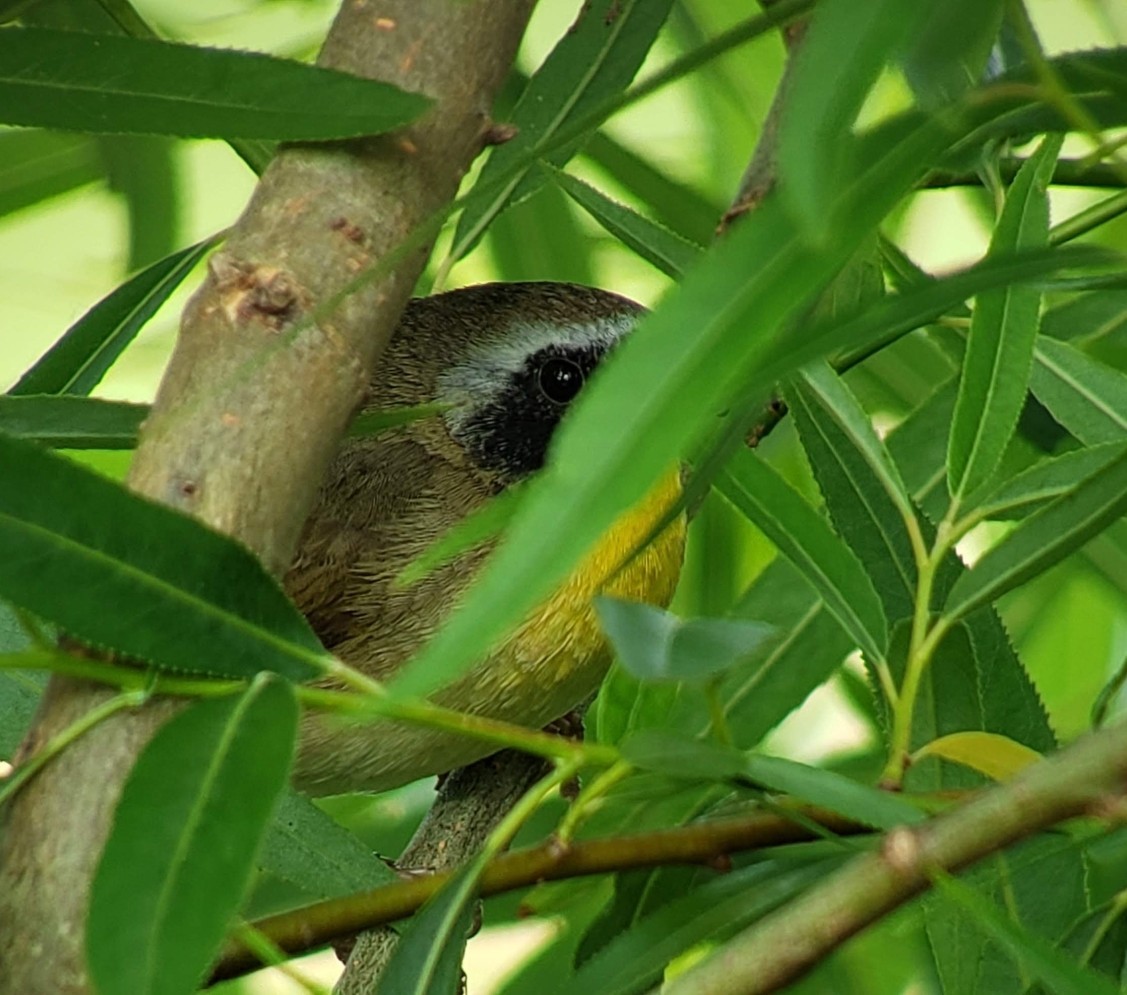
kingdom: Animalia
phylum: Chordata
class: Aves
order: Passeriformes
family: Parulidae
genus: Geothlypis
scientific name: Geothlypis trichas
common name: Common yellowthroat
